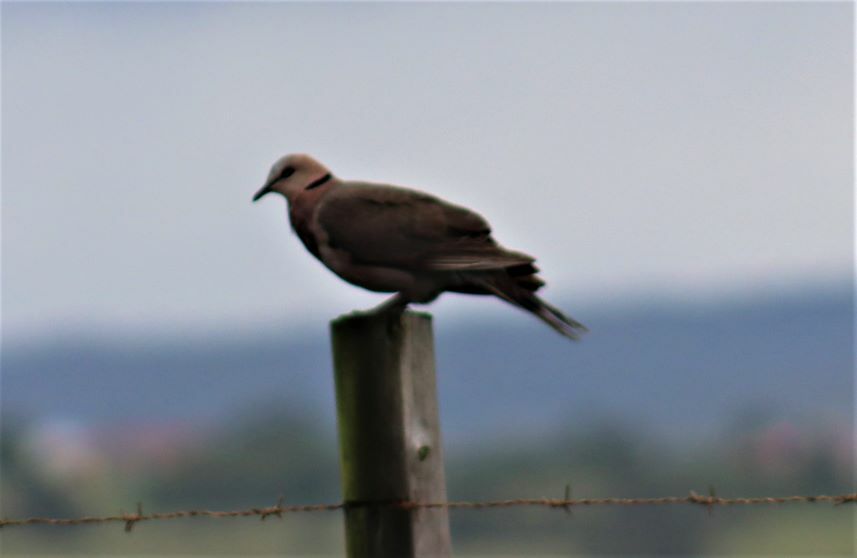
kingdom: Animalia
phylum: Chordata
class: Aves
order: Columbiformes
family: Columbidae
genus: Streptopelia
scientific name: Streptopelia semitorquata
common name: Red-eyed dove
